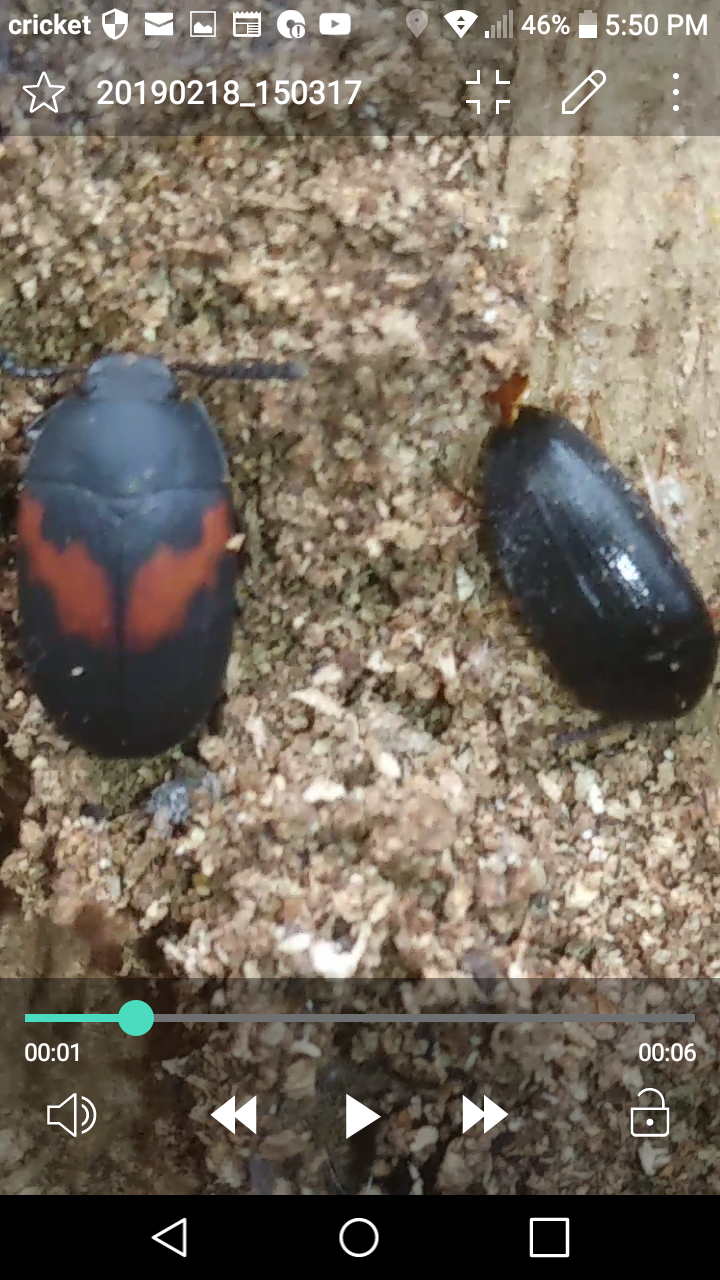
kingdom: Animalia
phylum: Arthropoda
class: Insecta
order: Coleoptera
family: Tenebrionidae
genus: Platydema
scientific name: Platydema elliptica
